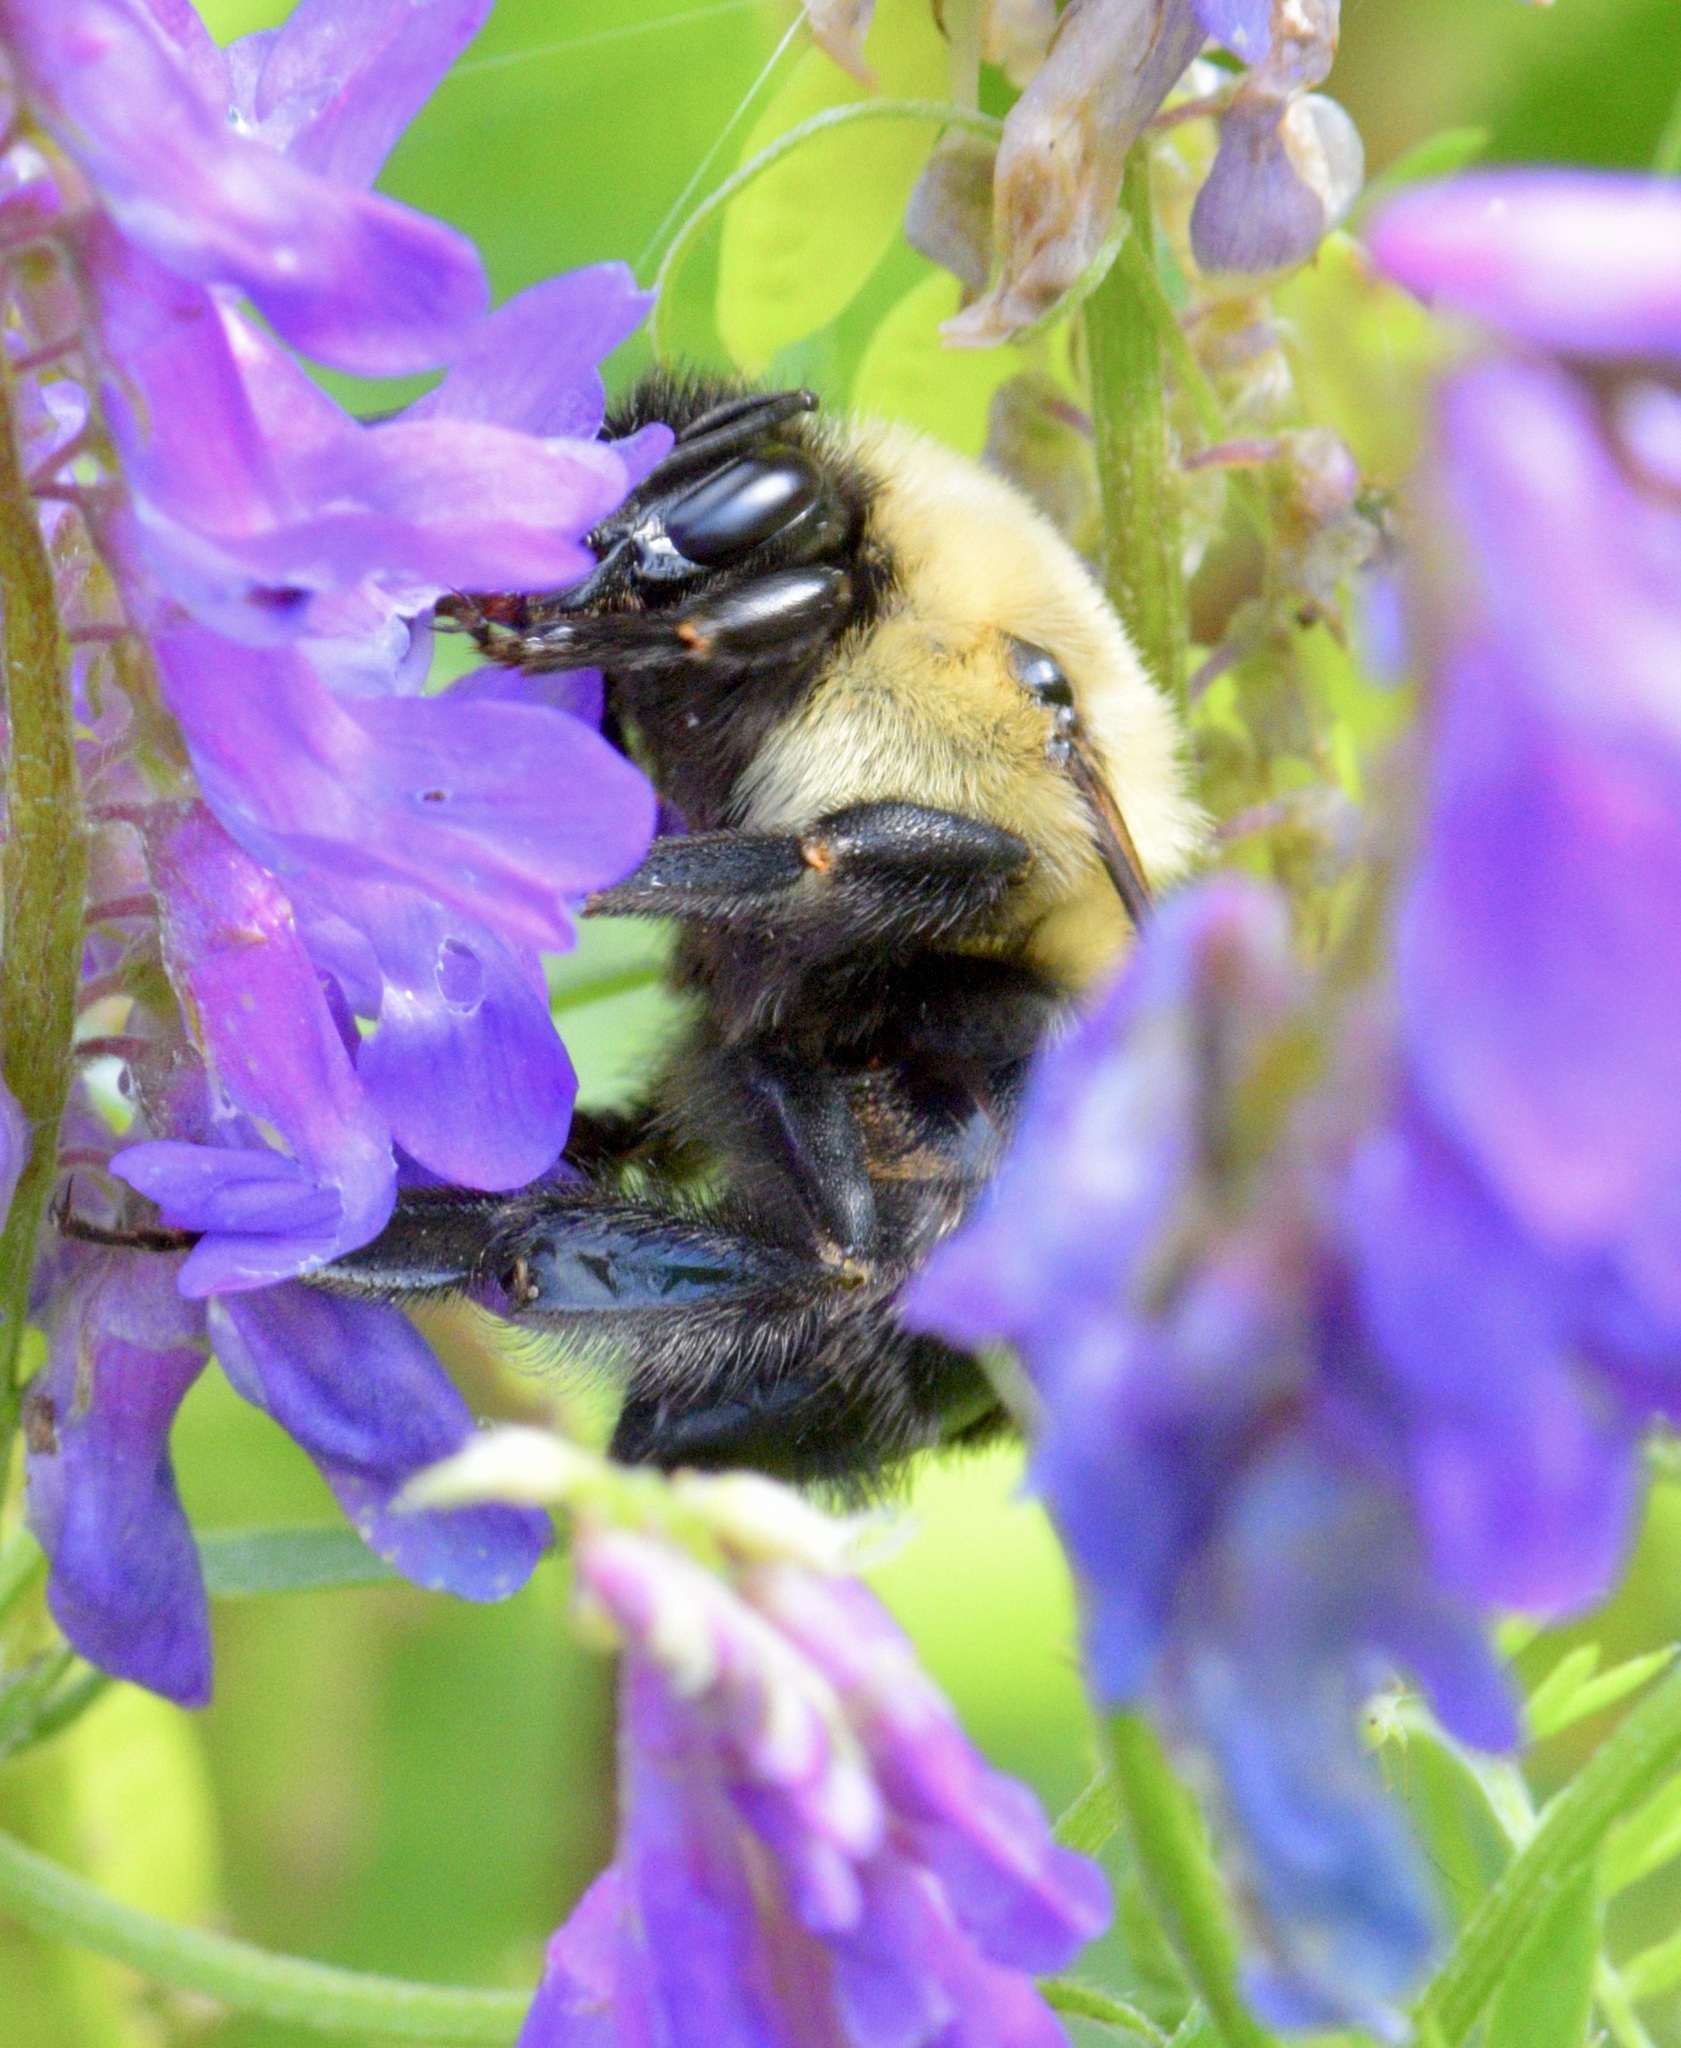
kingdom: Animalia
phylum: Arthropoda
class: Insecta
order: Hymenoptera
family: Apidae
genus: Bombus
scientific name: Bombus impatiens
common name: Common eastern bumble bee
